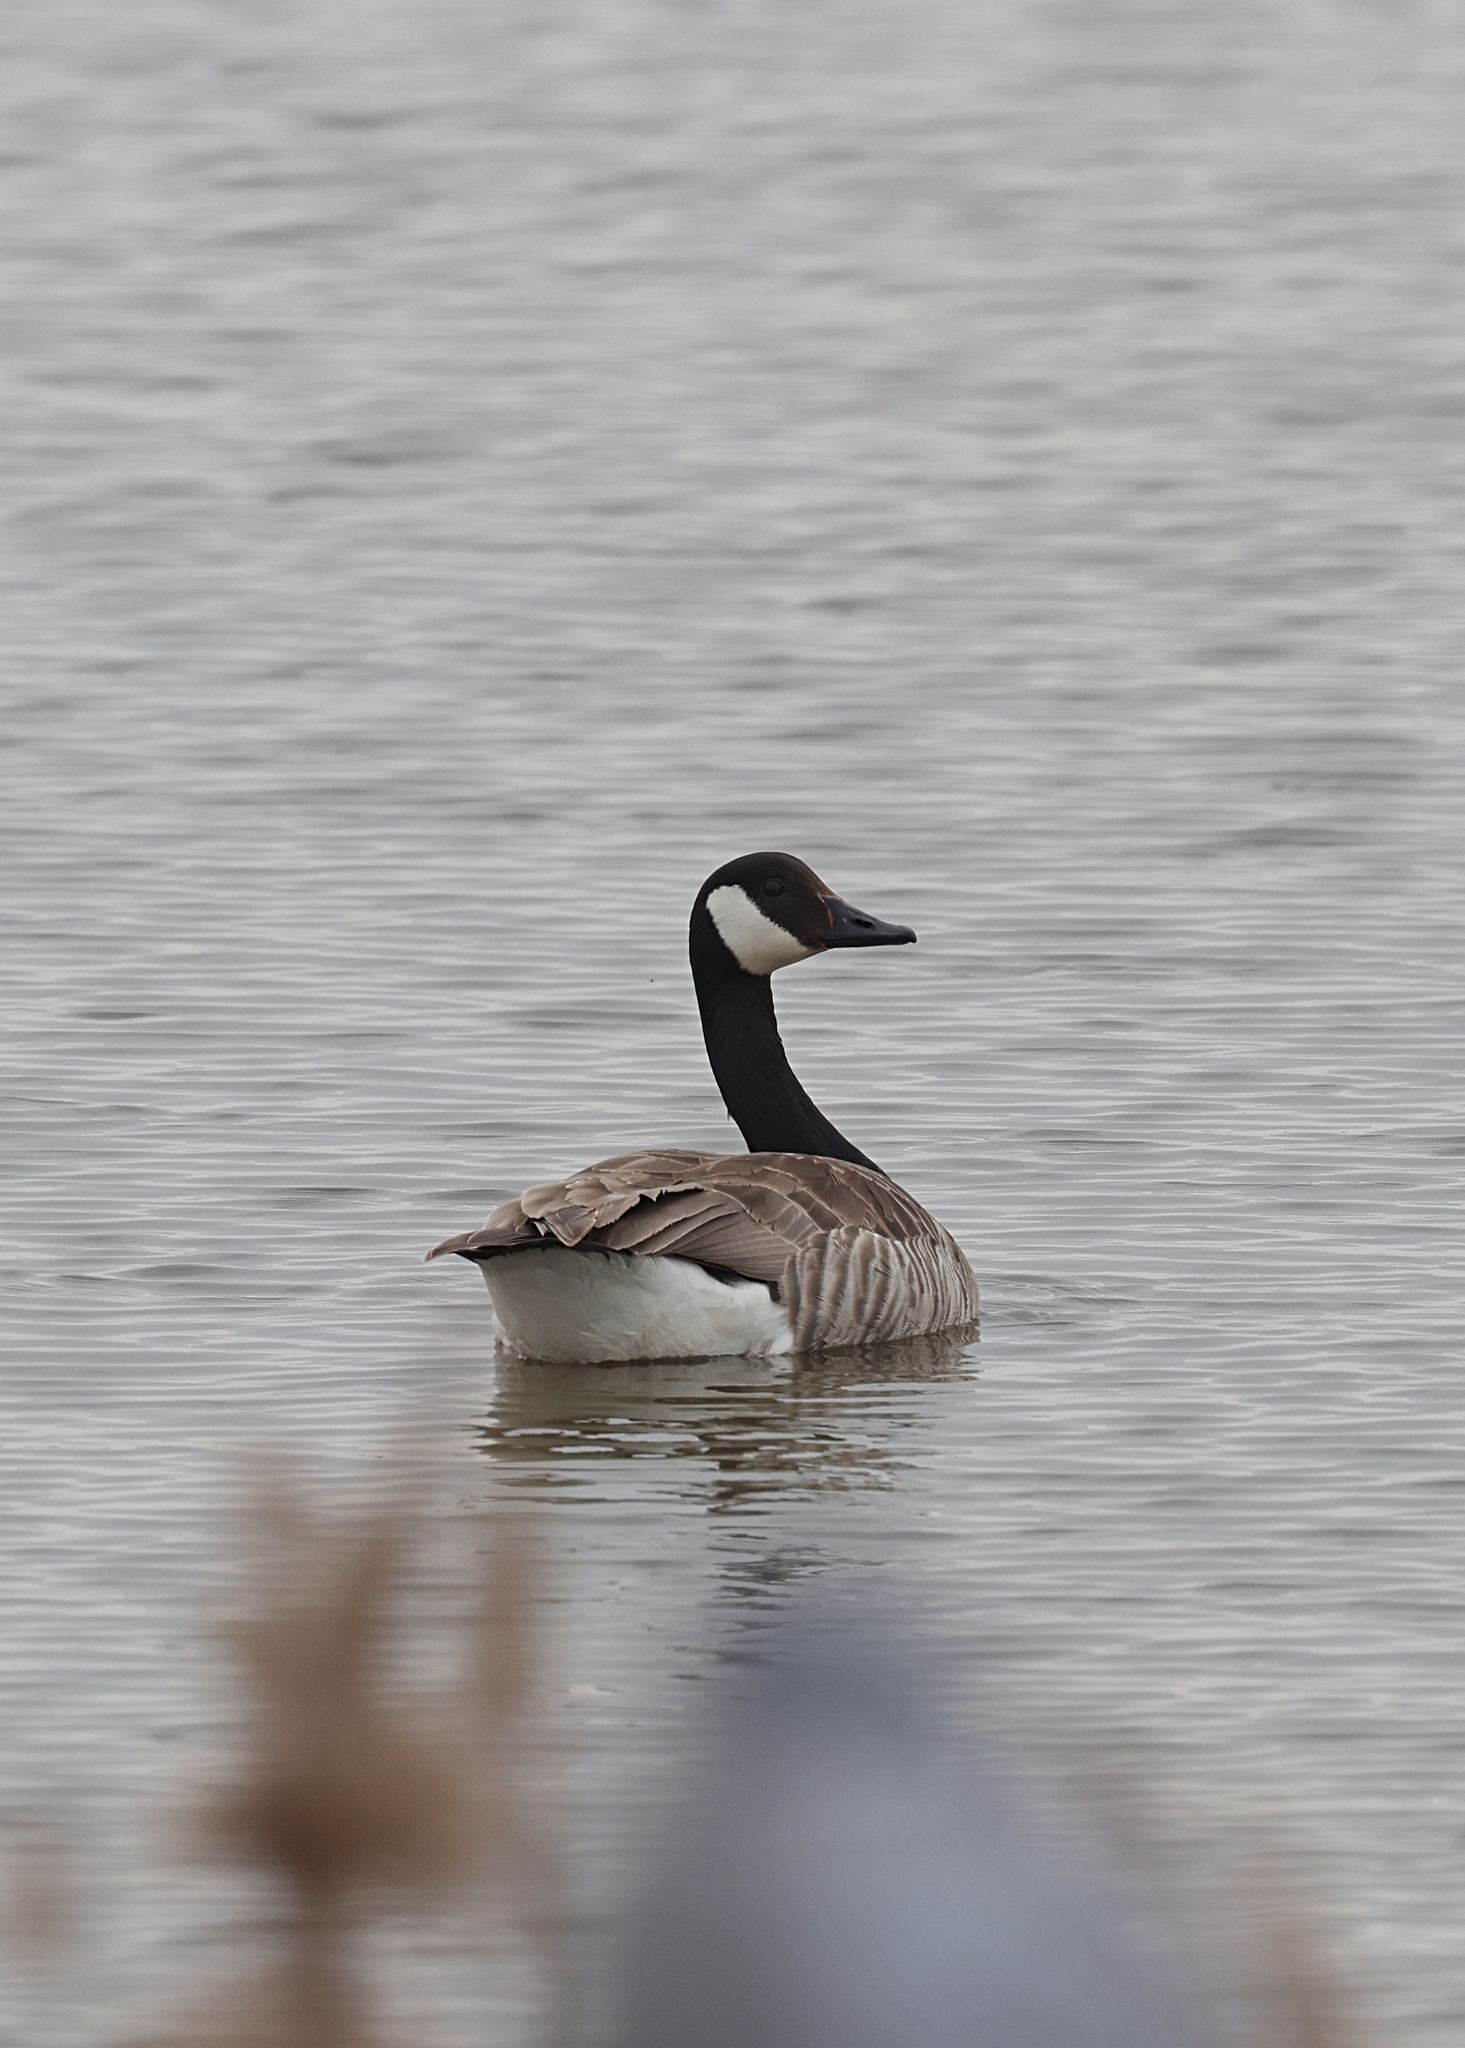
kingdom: Animalia
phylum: Chordata
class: Aves
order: Anseriformes
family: Anatidae
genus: Branta
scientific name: Branta canadensis
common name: Canada goose
